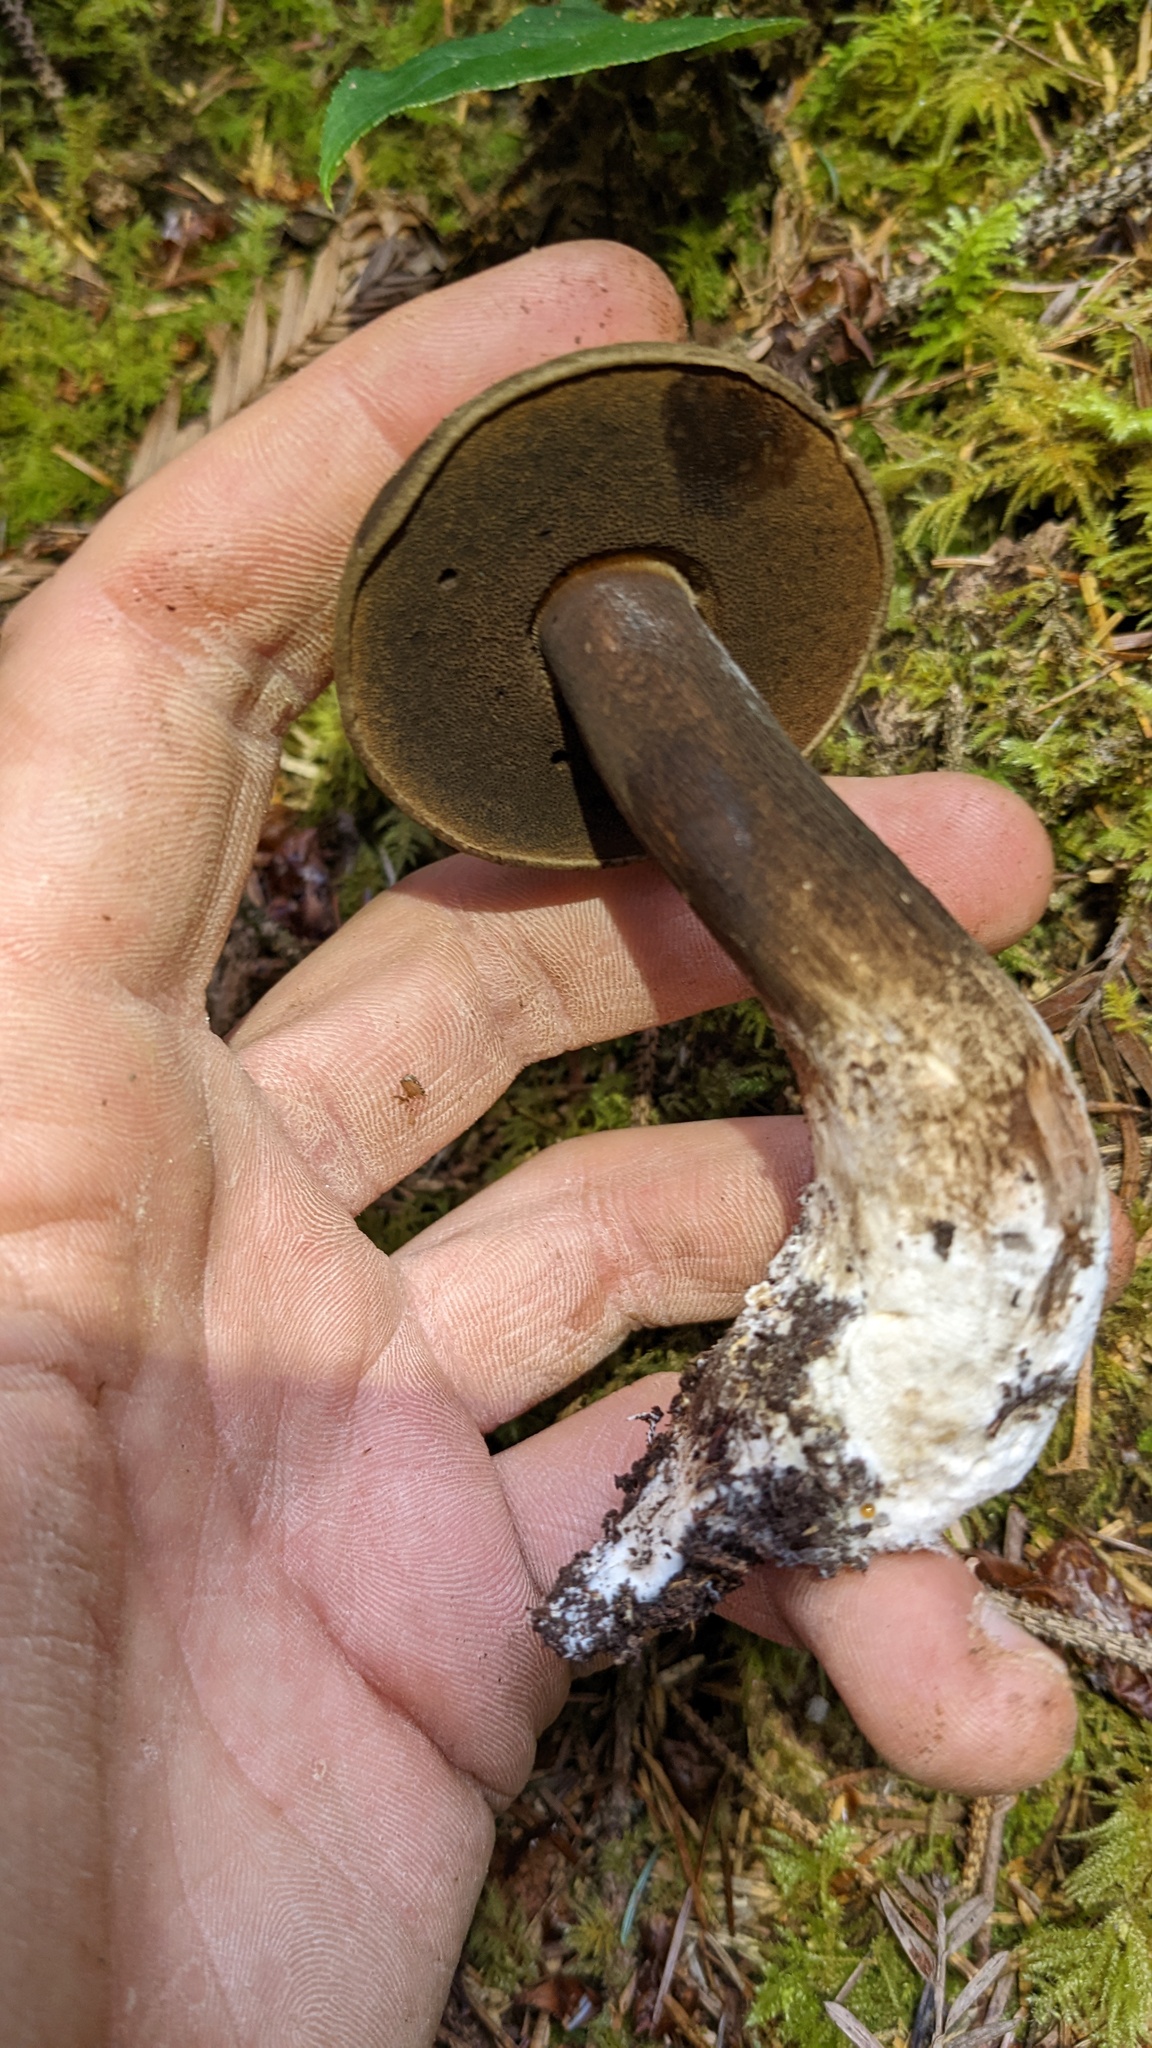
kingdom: Fungi
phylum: Basidiomycota
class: Agaricomycetes
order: Boletales
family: Boletaceae
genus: Porphyrellus
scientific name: Porphyrellus porphyrosporus
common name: Dusky bolete
